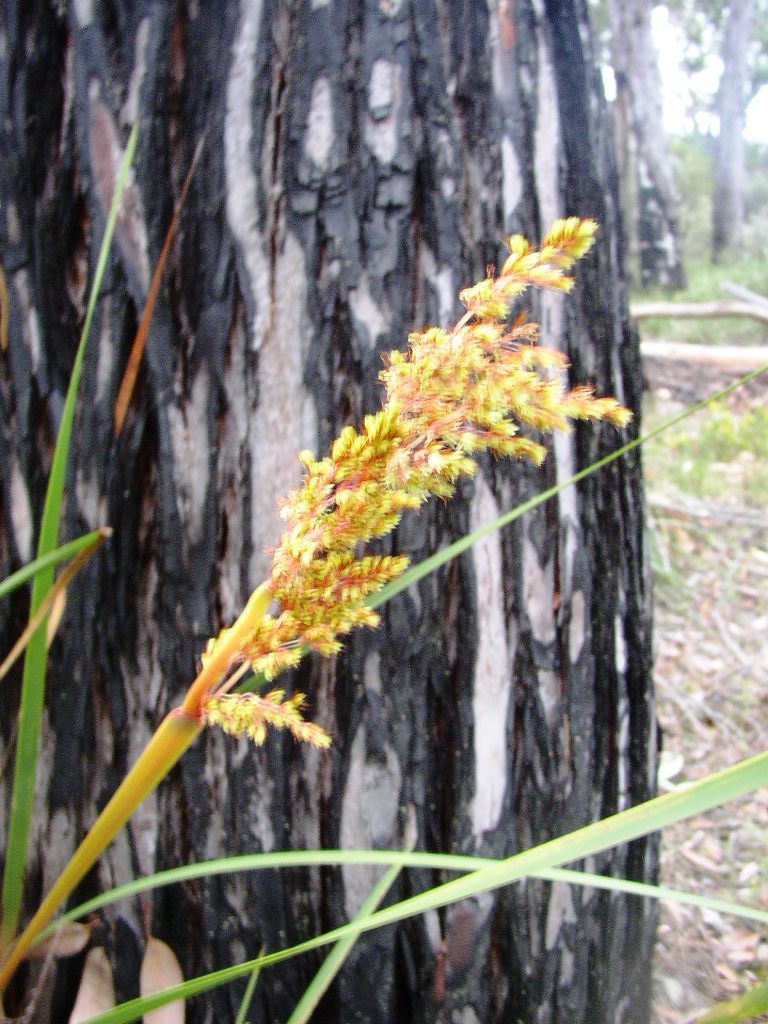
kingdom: Plantae
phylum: Tracheophyta
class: Liliopsida
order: Poales
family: Restionaceae
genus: Anarthria
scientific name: Anarthria scabra
